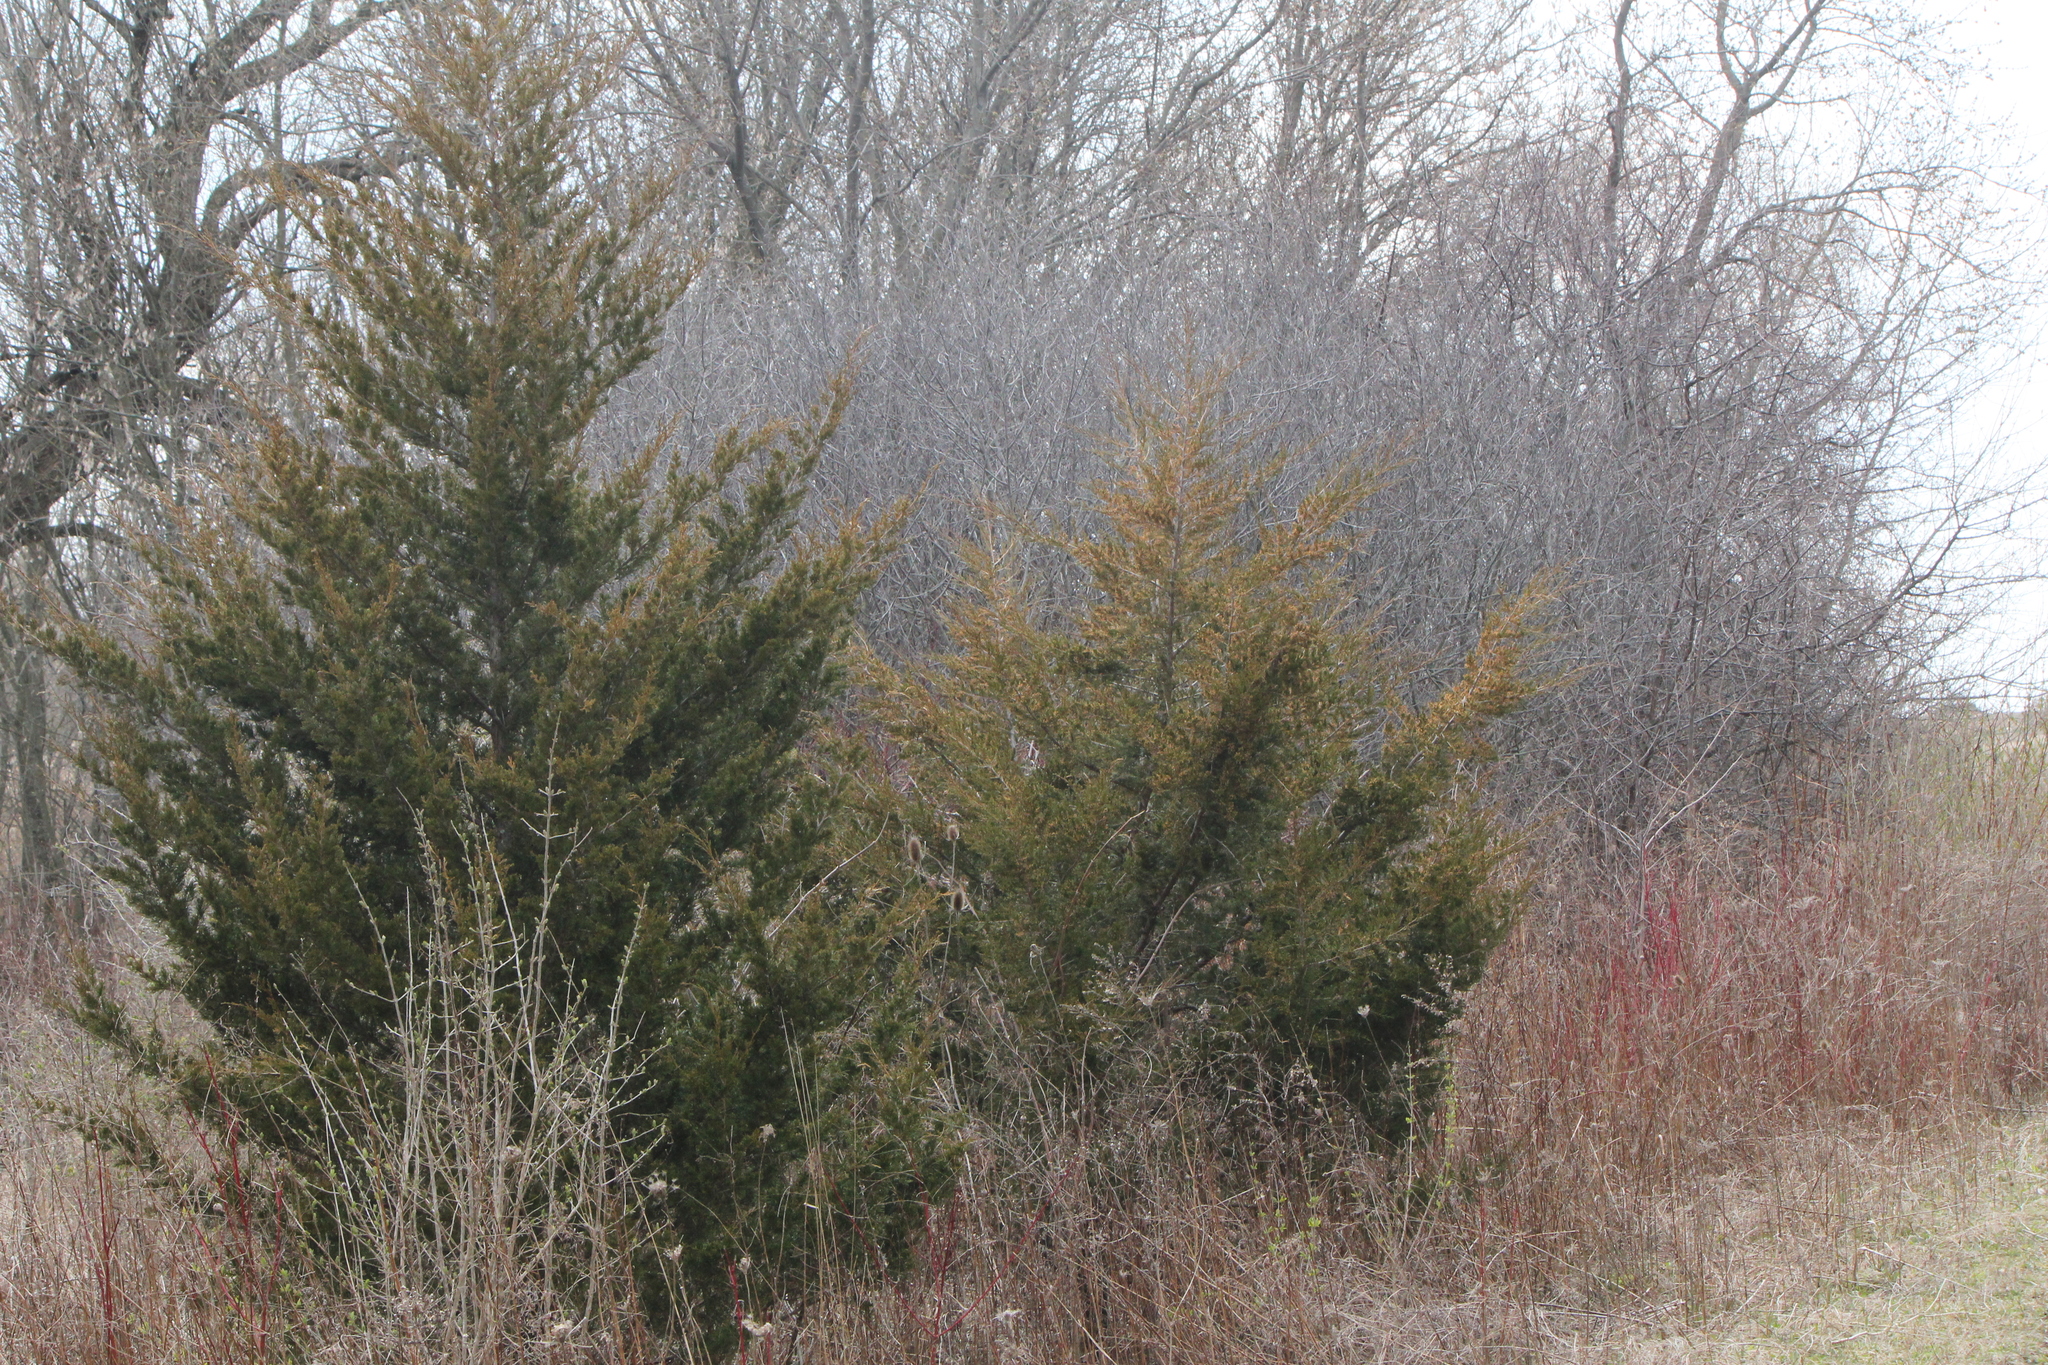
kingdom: Plantae
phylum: Tracheophyta
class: Pinopsida
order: Pinales
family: Cupressaceae
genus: Juniperus
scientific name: Juniperus virginiana
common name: Red juniper
